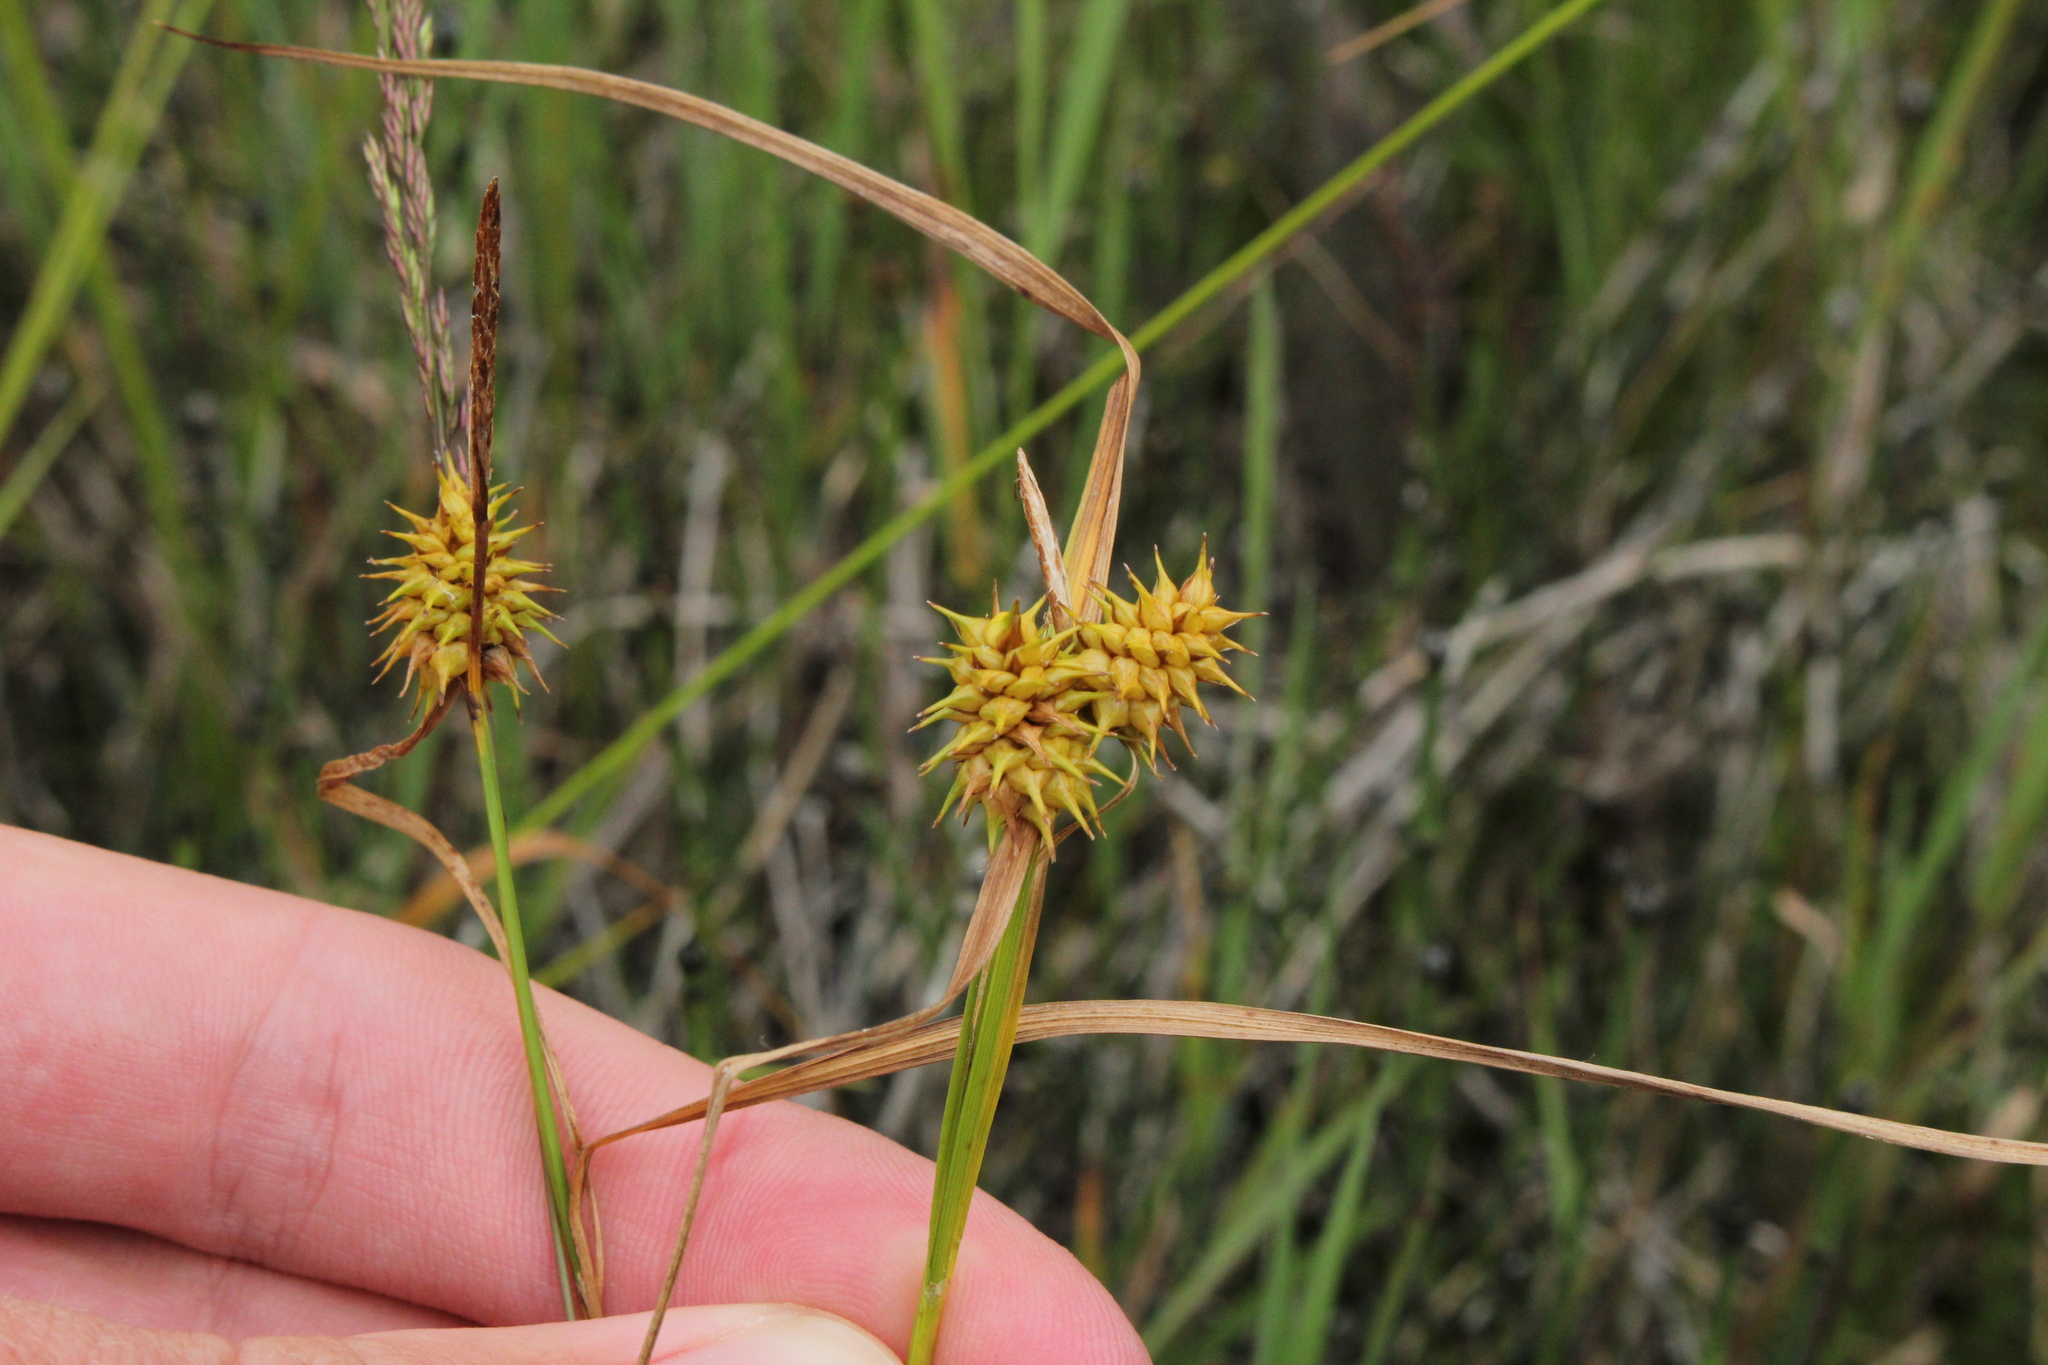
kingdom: Plantae
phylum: Tracheophyta
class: Liliopsida
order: Poales
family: Cyperaceae
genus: Carex
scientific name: Carex flava
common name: Large yellow-sedge
